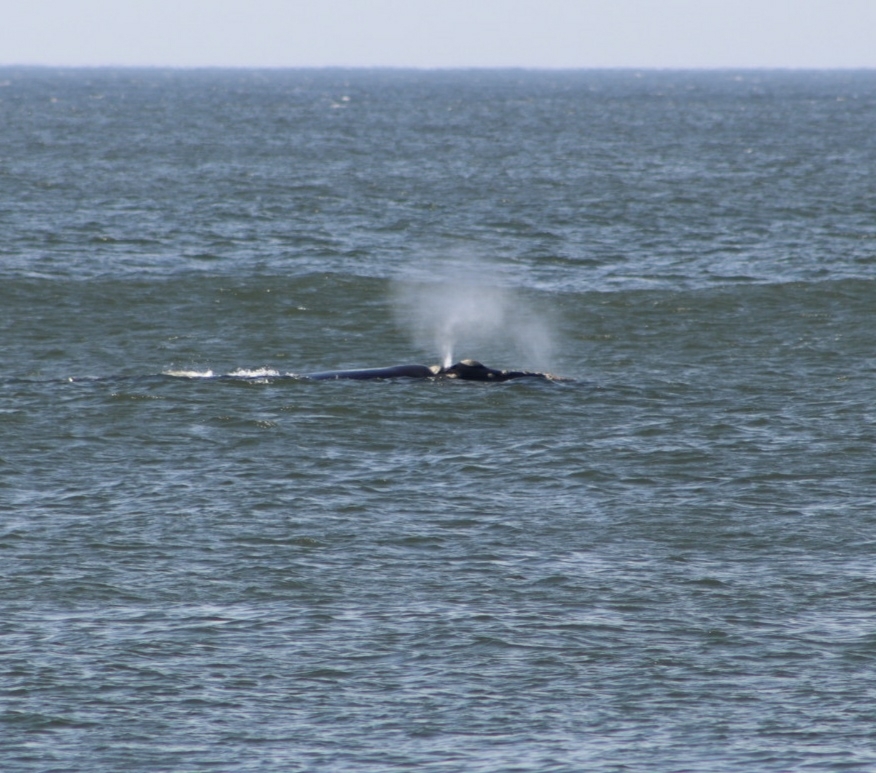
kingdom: Animalia
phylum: Chordata
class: Mammalia
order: Cetacea
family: Balaenidae
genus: Eubalaena
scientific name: Eubalaena australis
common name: Southern right whale
